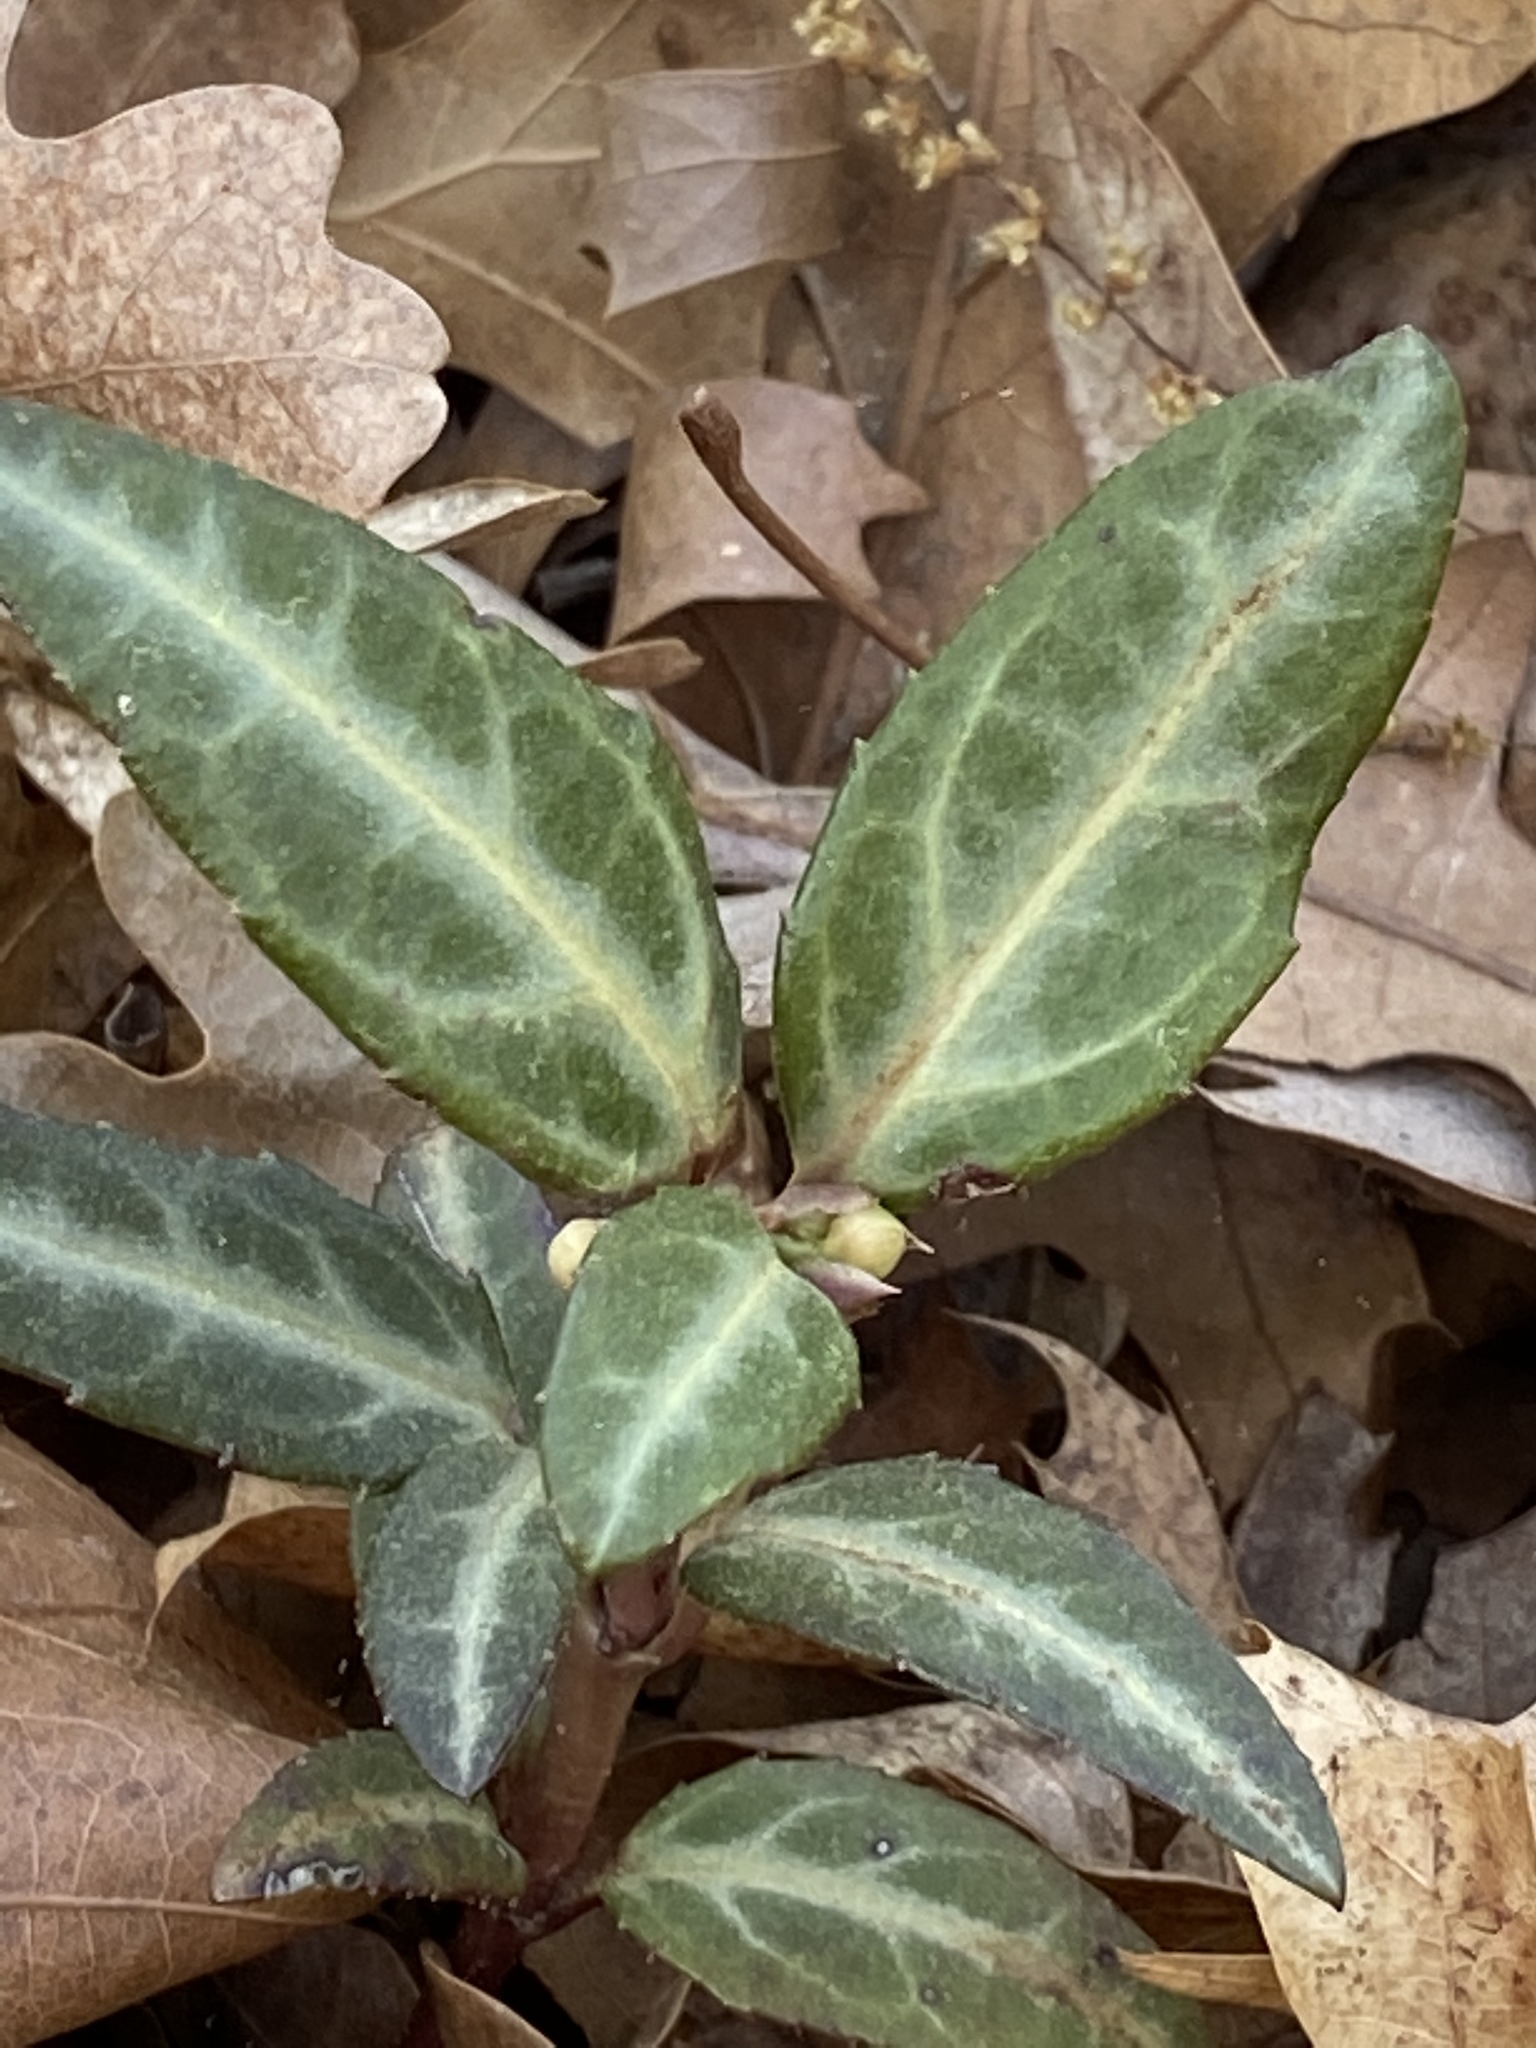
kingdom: Plantae
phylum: Tracheophyta
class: Magnoliopsida
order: Ericales
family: Ericaceae
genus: Chimaphila
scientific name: Chimaphila maculata
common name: Spotted pipsissewa
